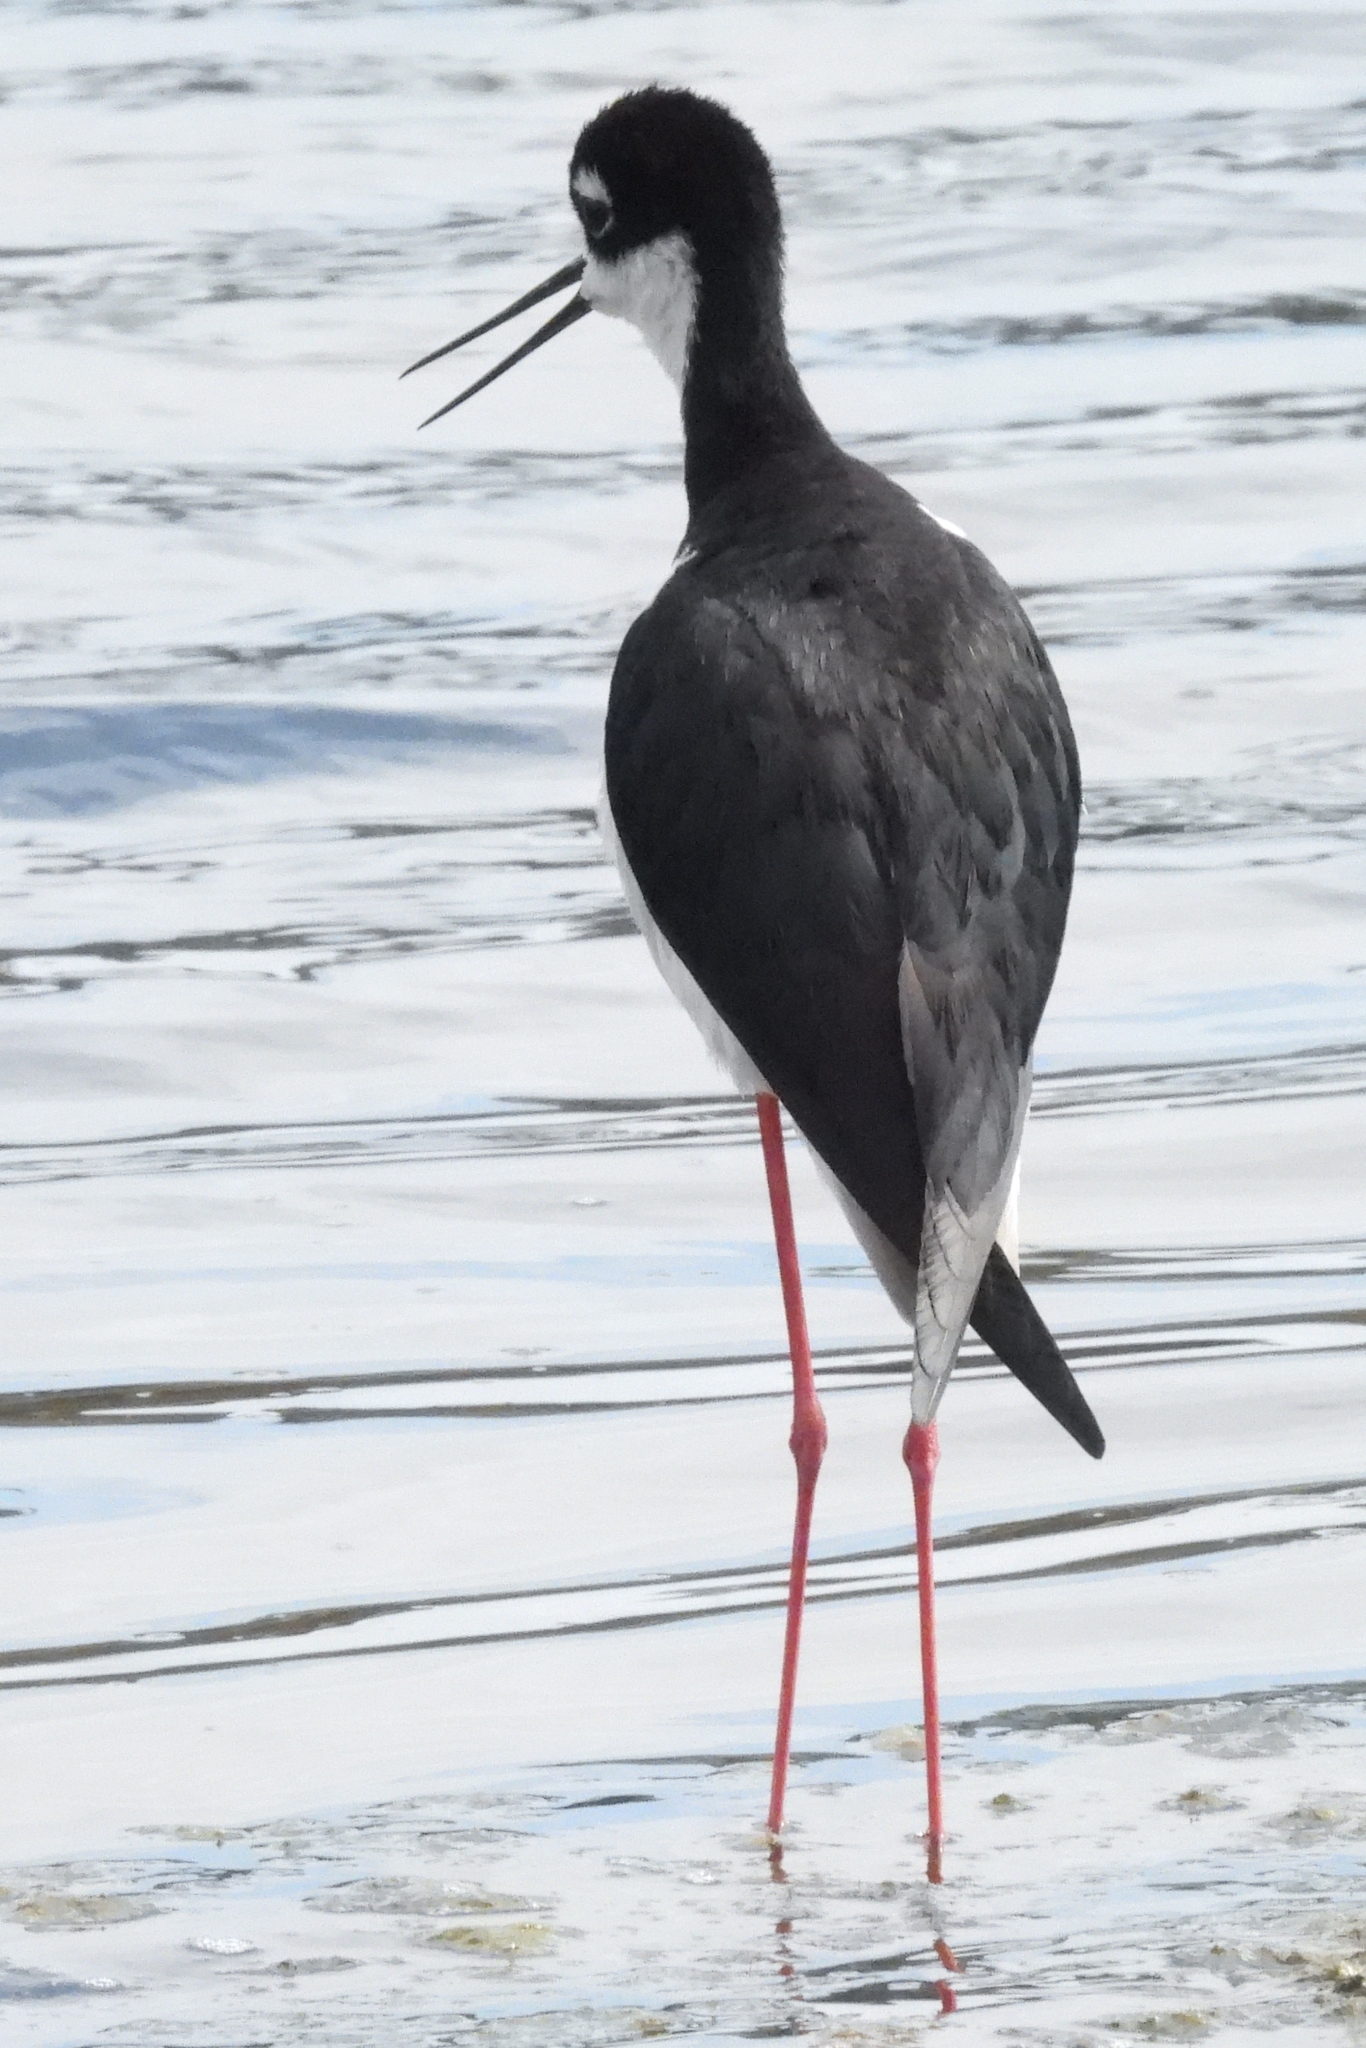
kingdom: Animalia
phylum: Chordata
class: Aves
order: Charadriiformes
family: Recurvirostridae
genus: Himantopus
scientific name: Himantopus mexicanus
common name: Black-necked stilt
